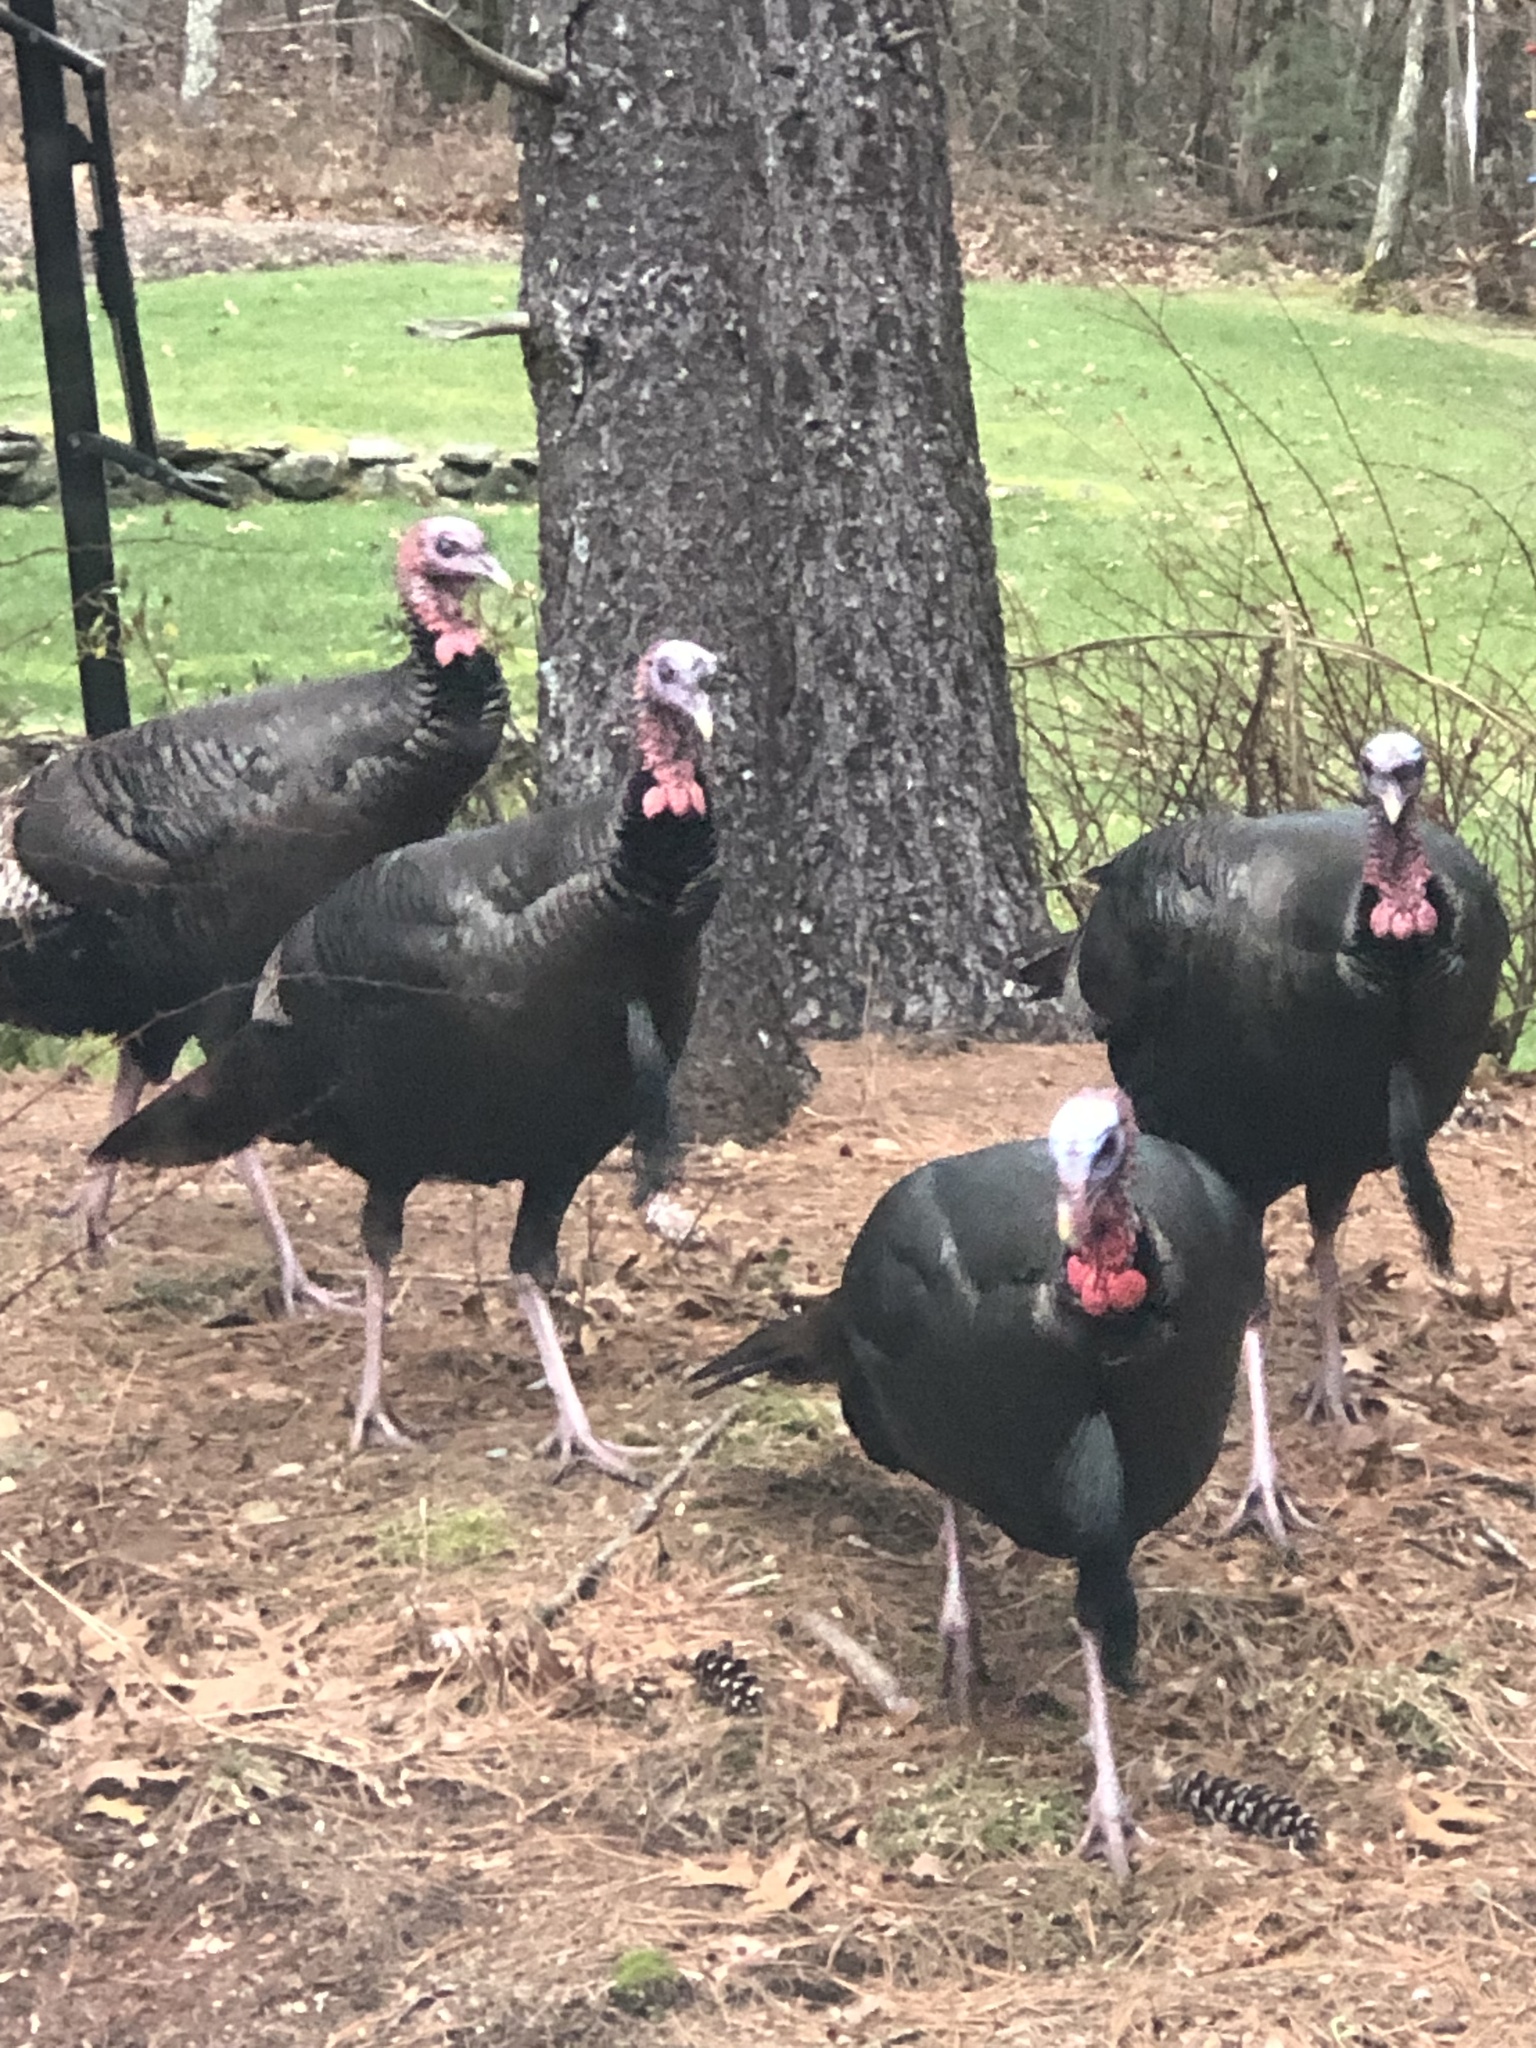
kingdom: Animalia
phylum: Chordata
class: Aves
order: Galliformes
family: Phasianidae
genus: Meleagris
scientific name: Meleagris gallopavo
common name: Wild turkey
